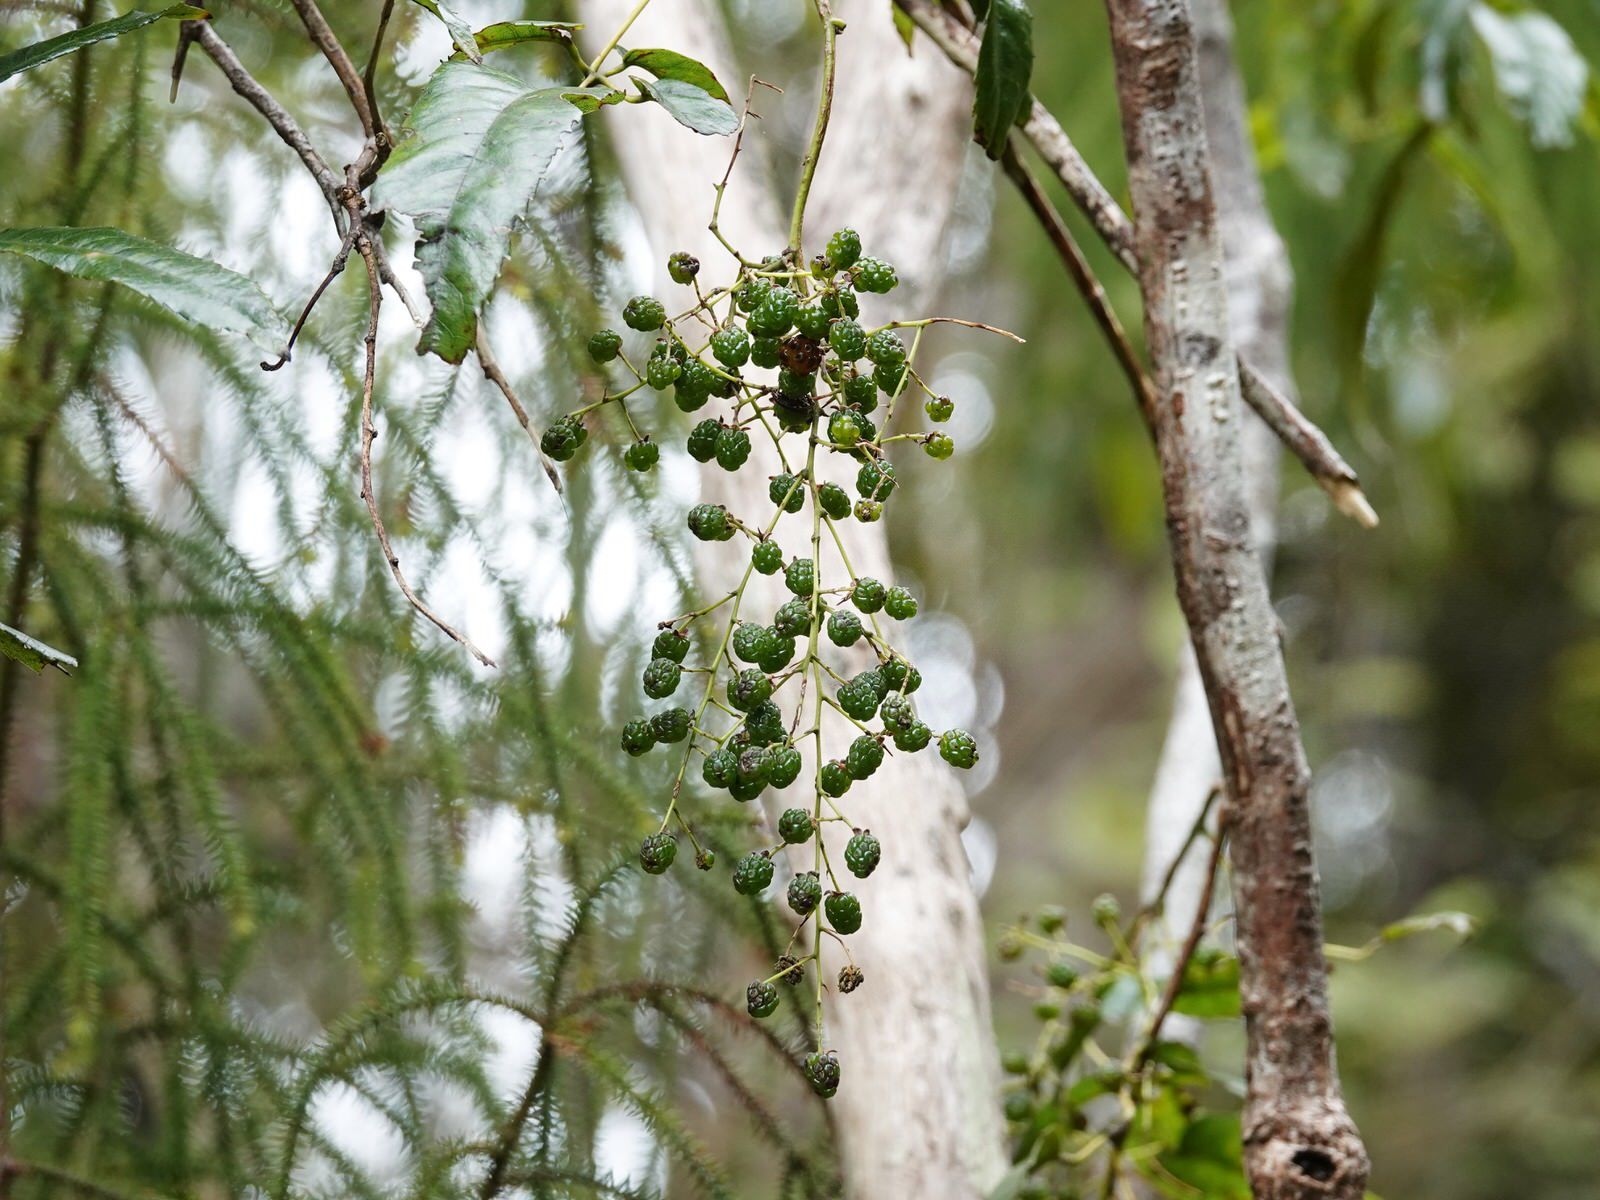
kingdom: Plantae
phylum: Tracheophyta
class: Magnoliopsida
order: Rosales
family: Rosaceae
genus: Rubus
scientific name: Rubus cissoides
